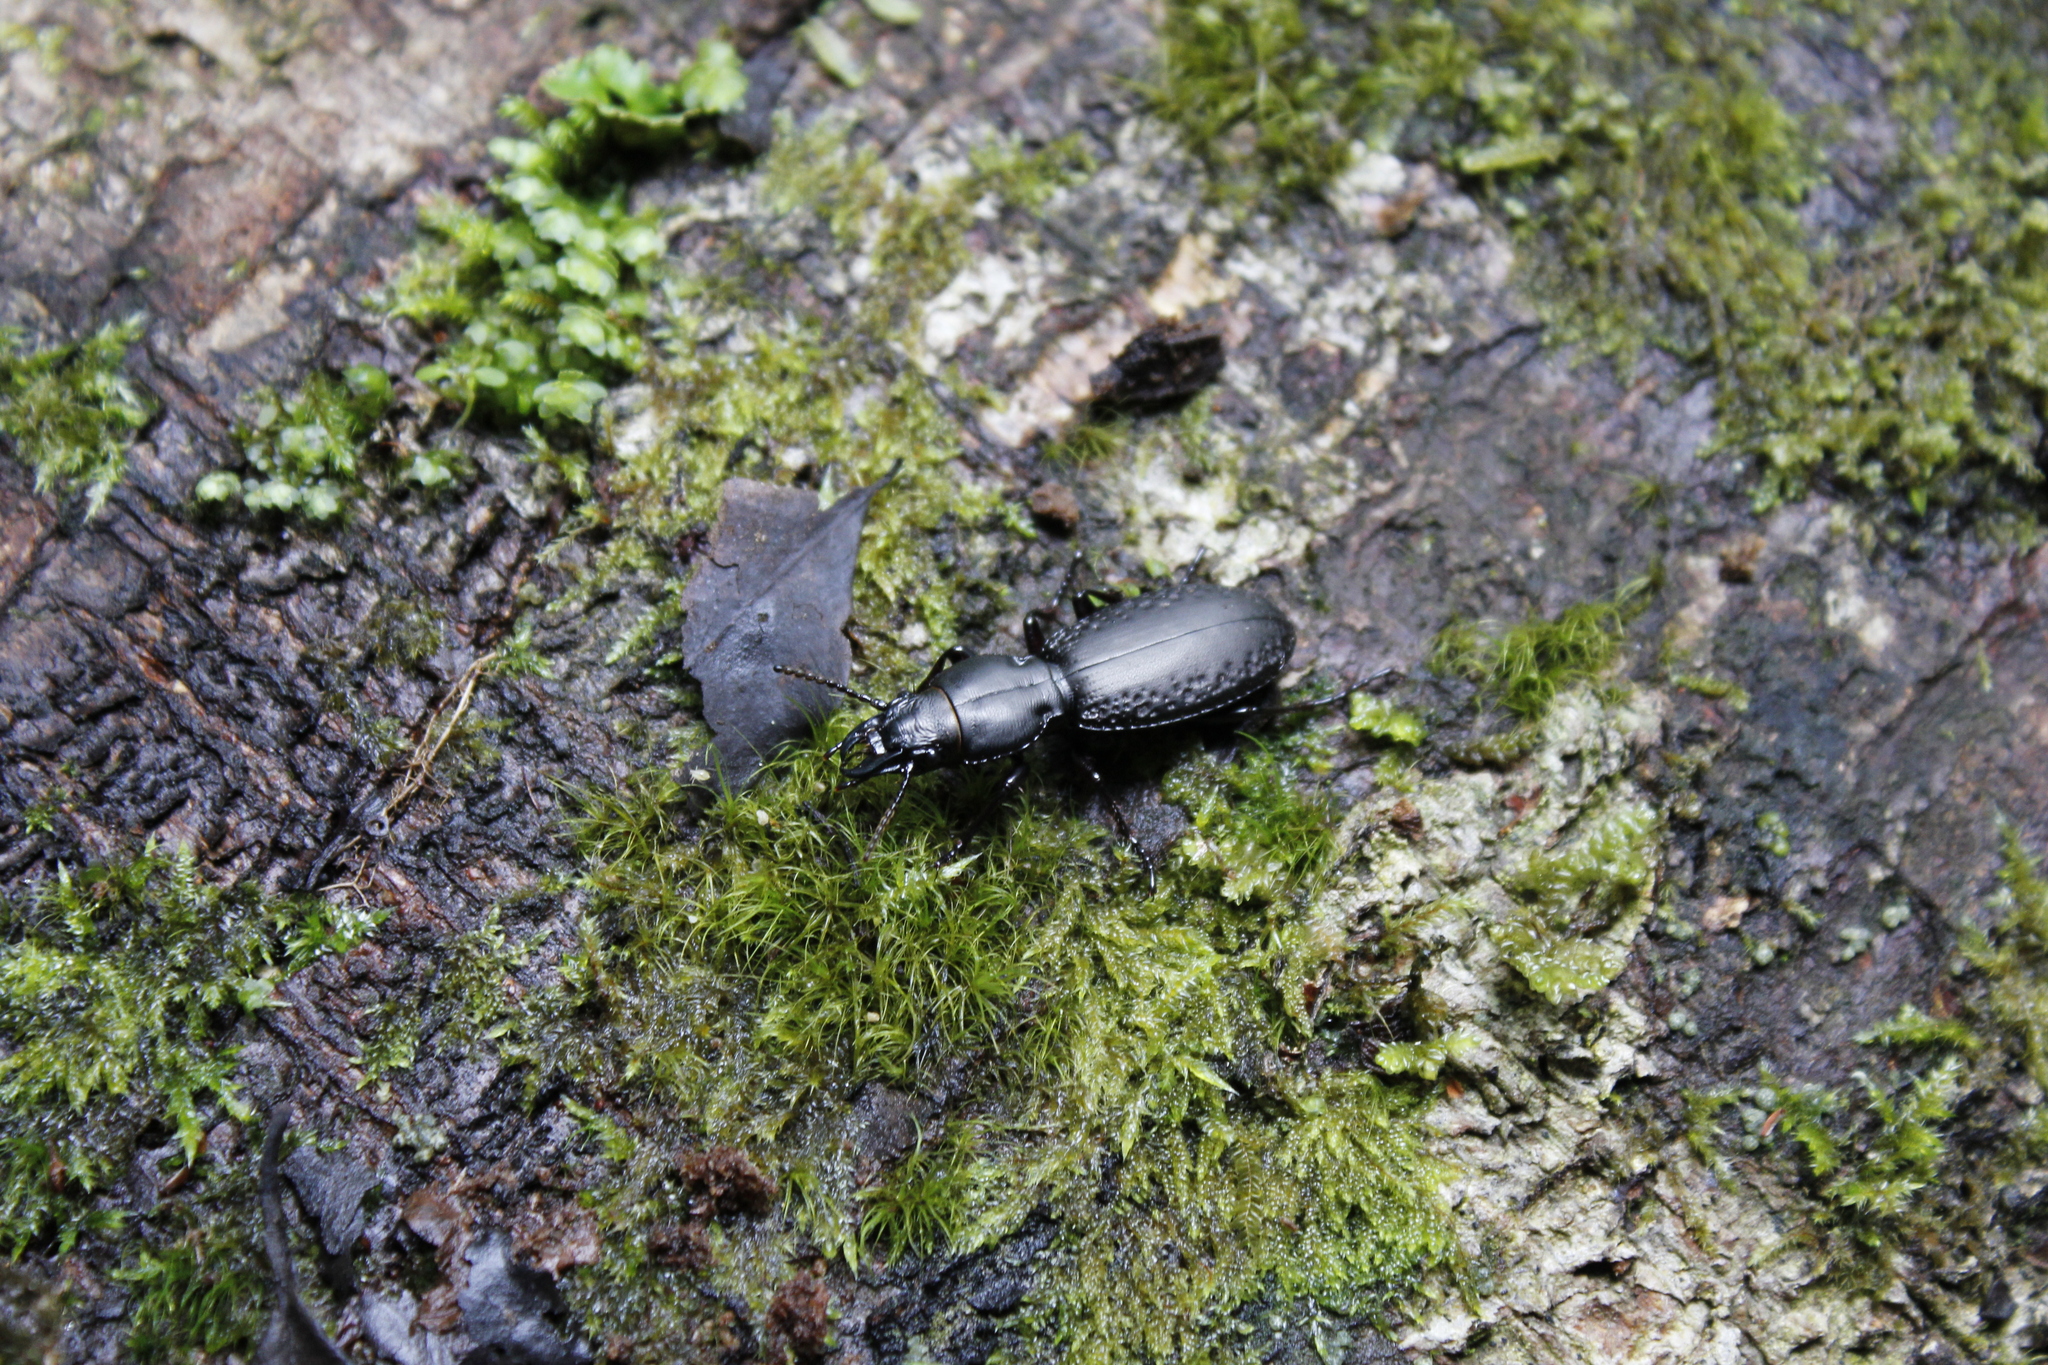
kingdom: Animalia
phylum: Arthropoda
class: Insecta
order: Coleoptera
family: Carabidae
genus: Mecodema
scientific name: Mecodema ducale
